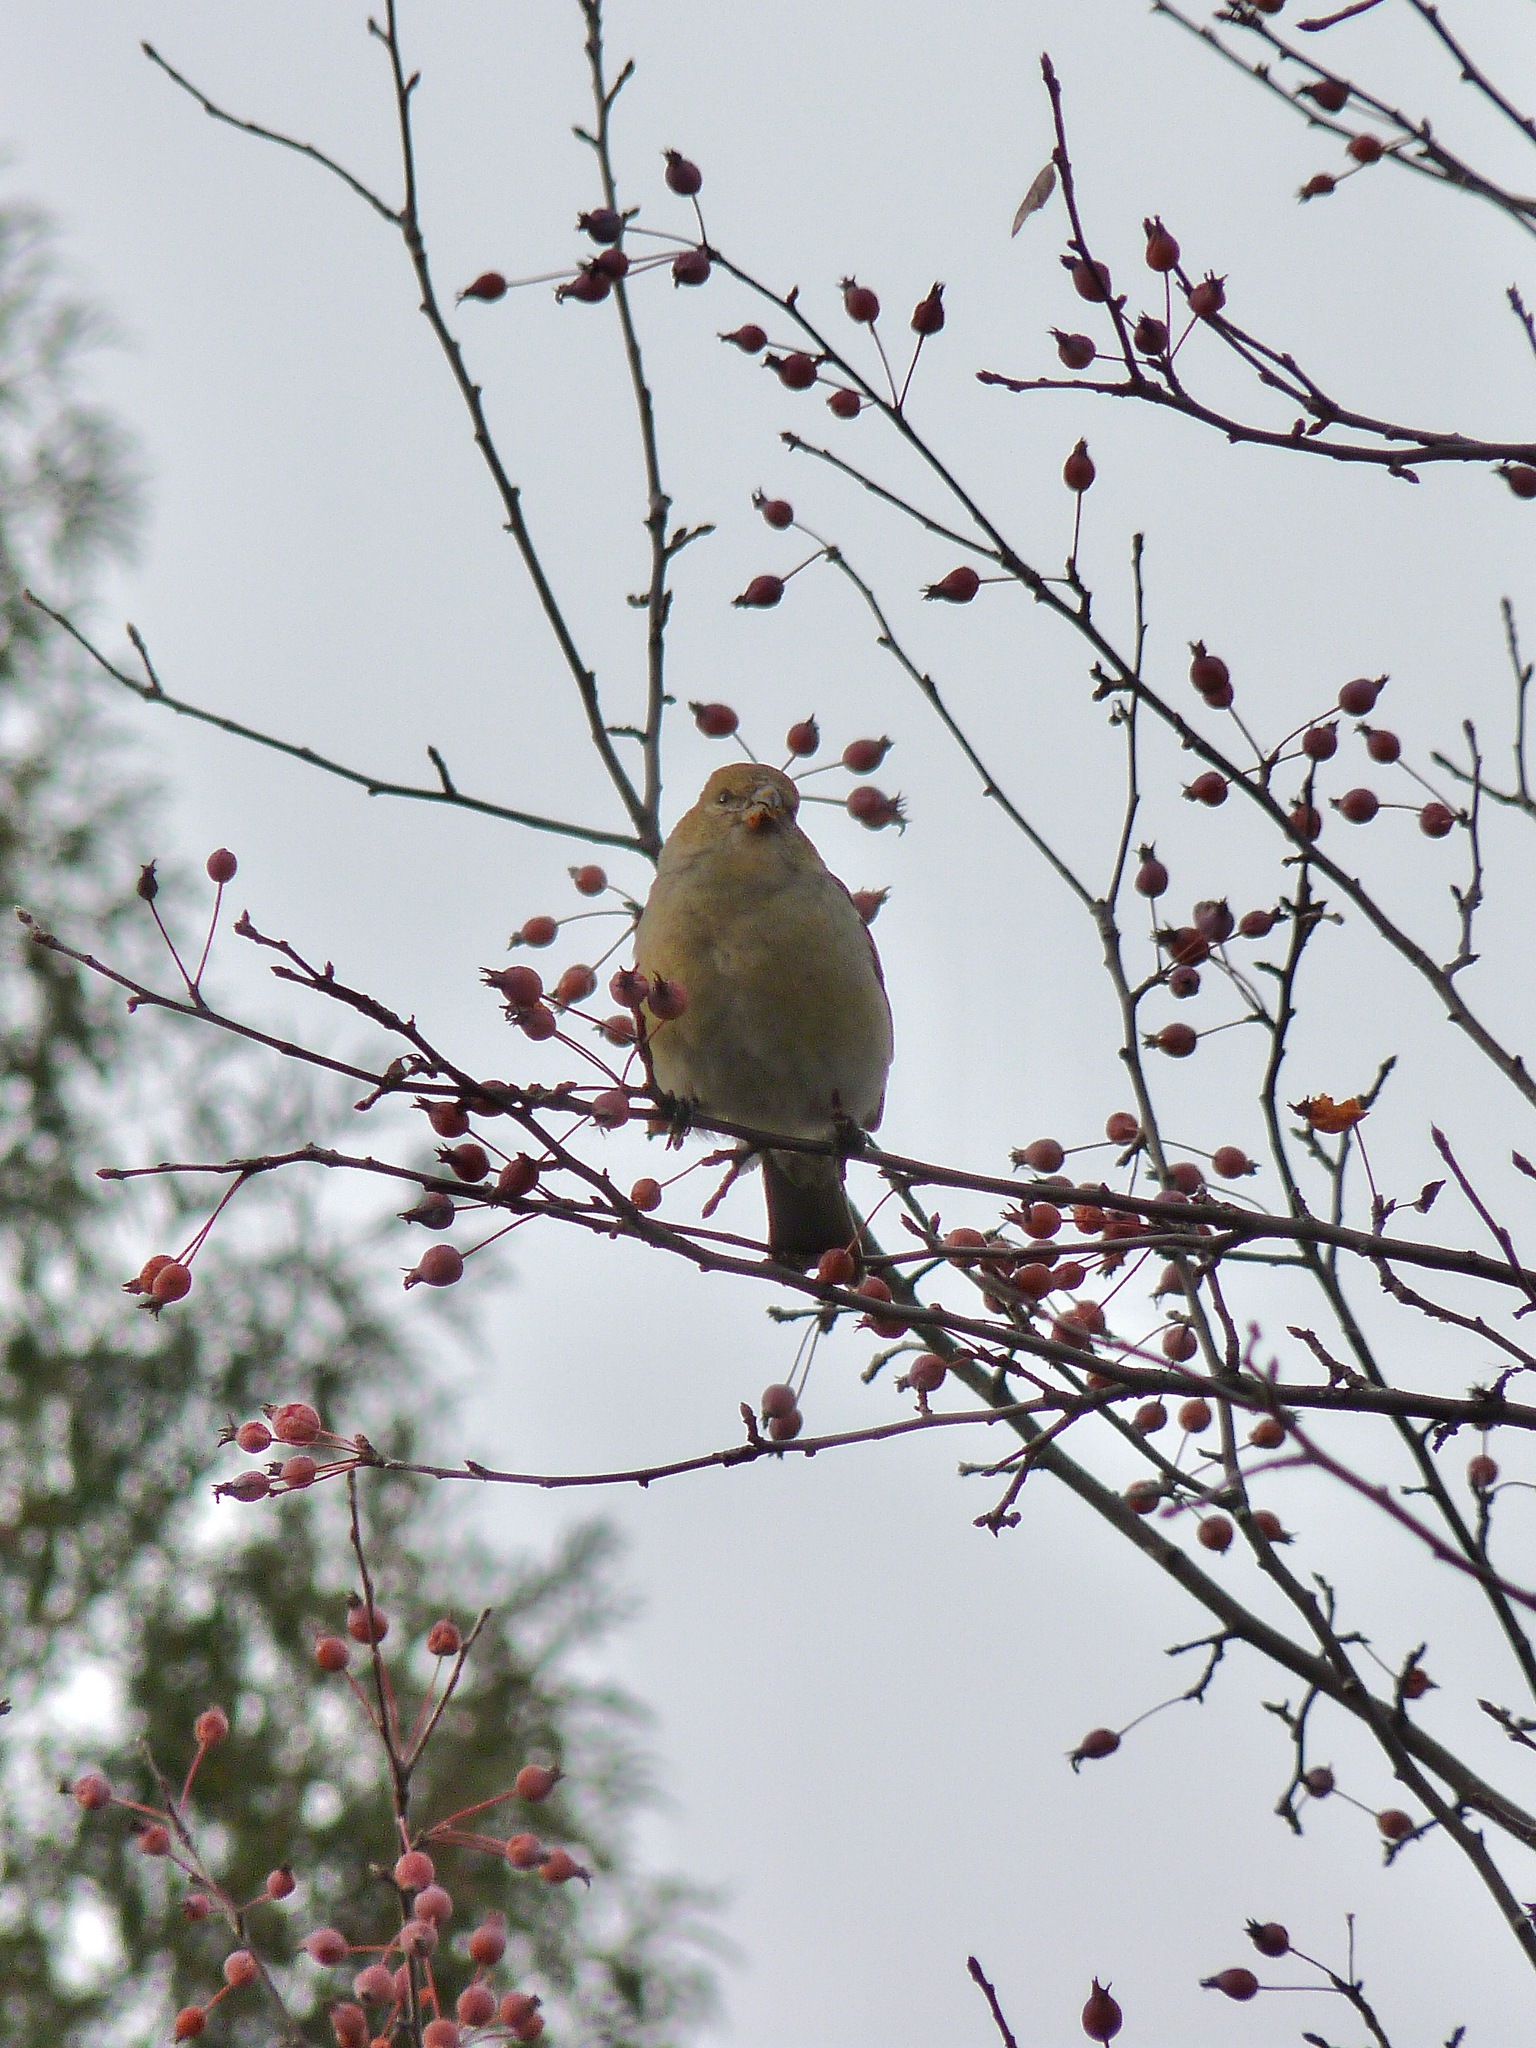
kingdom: Animalia
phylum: Chordata
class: Aves
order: Passeriformes
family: Fringillidae
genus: Pinicola
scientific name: Pinicola enucleator
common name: Pine grosbeak
